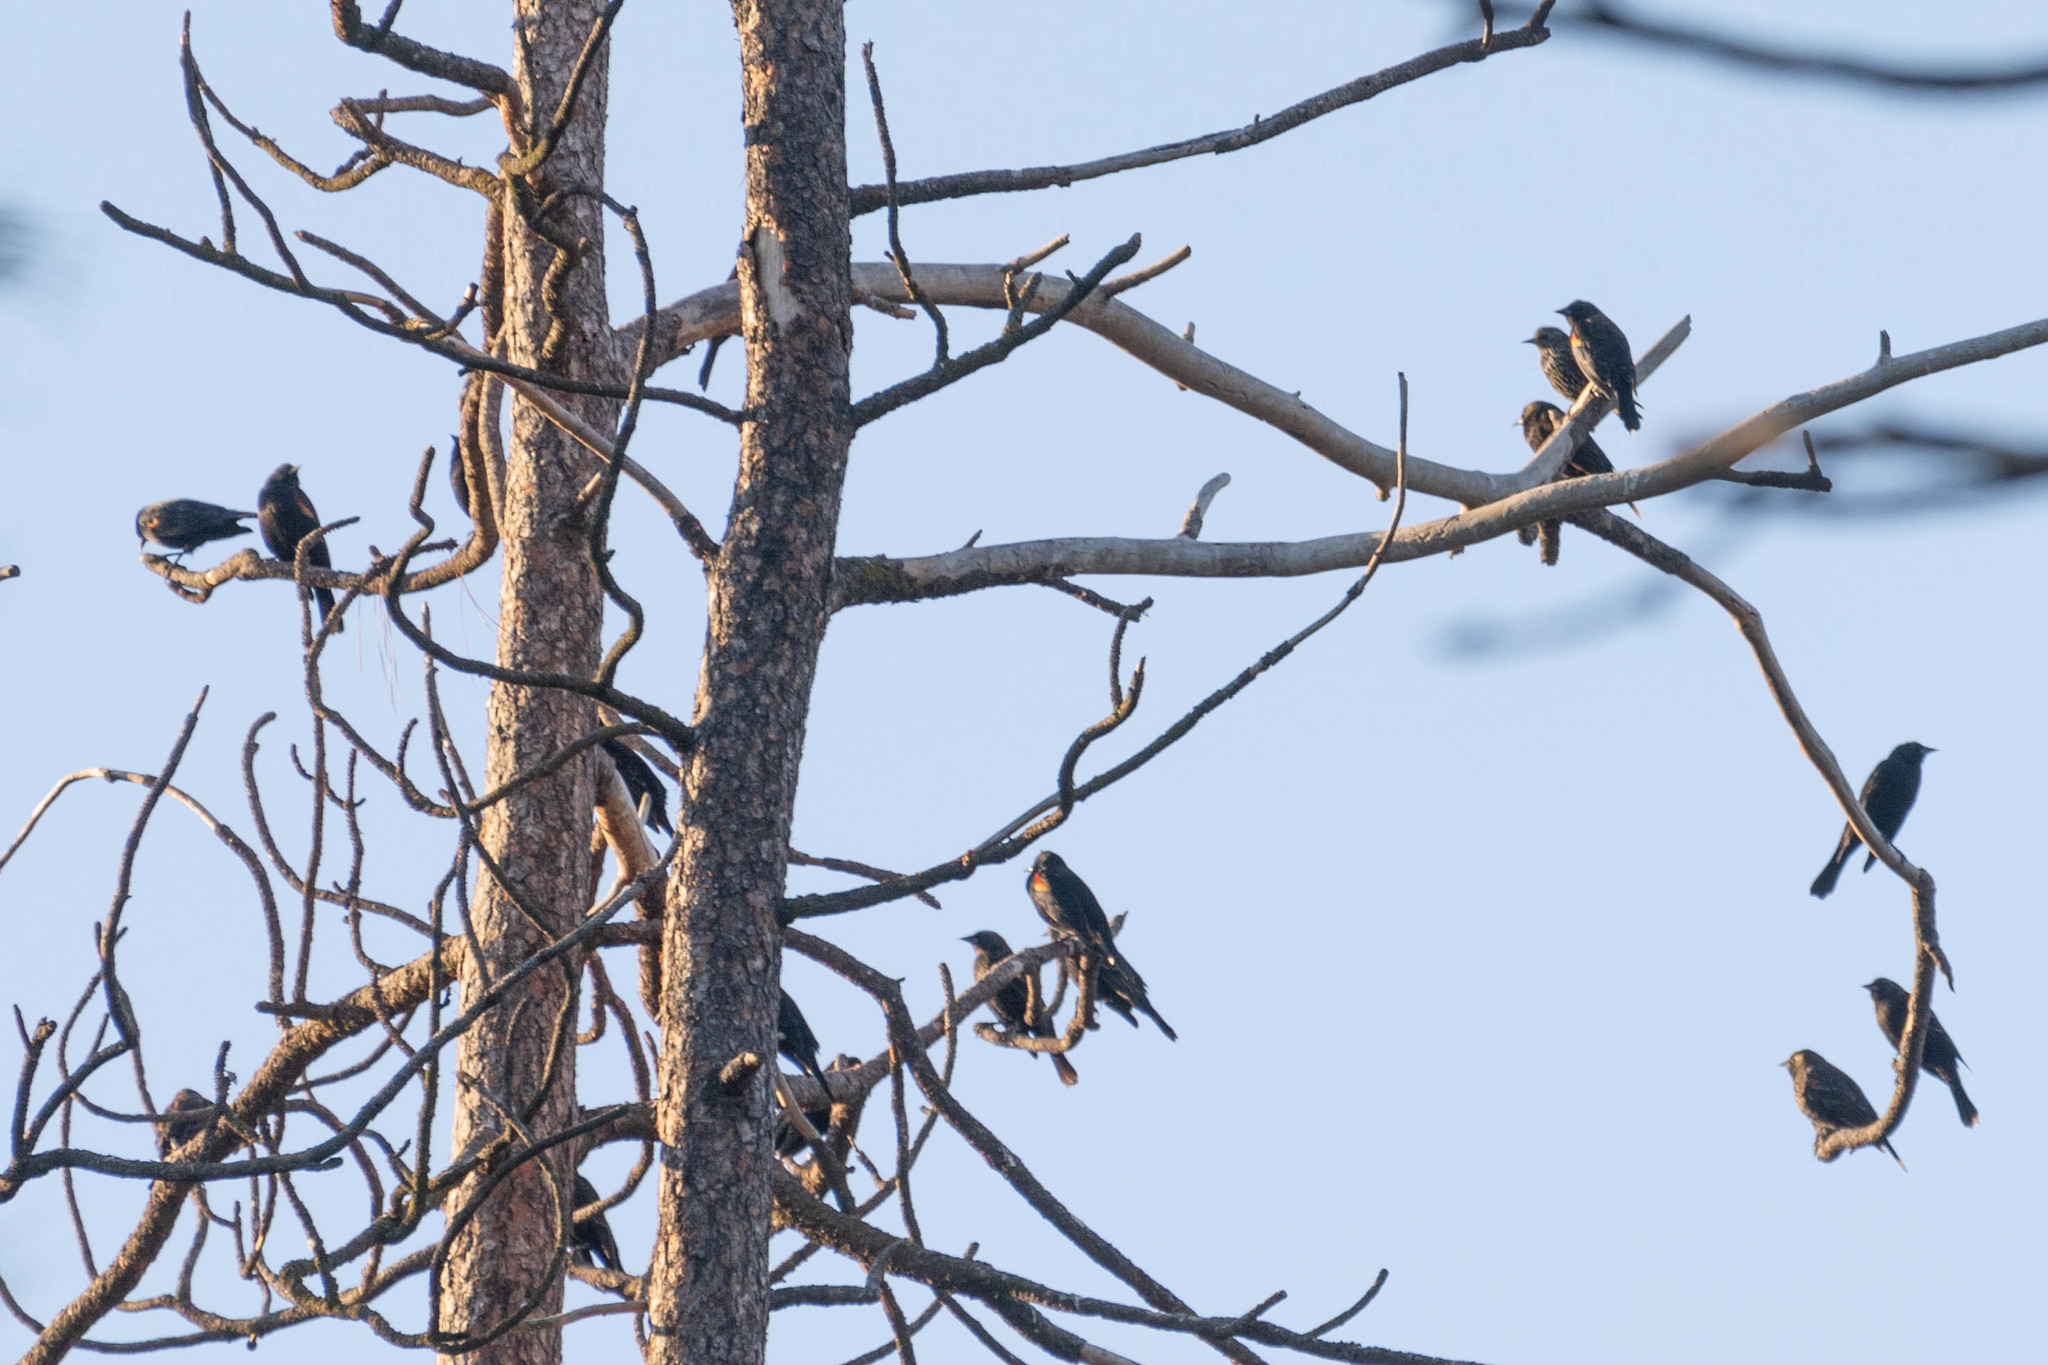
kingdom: Animalia
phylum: Chordata
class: Aves
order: Passeriformes
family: Icteridae
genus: Agelaius
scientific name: Agelaius phoeniceus
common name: Red-winged blackbird
